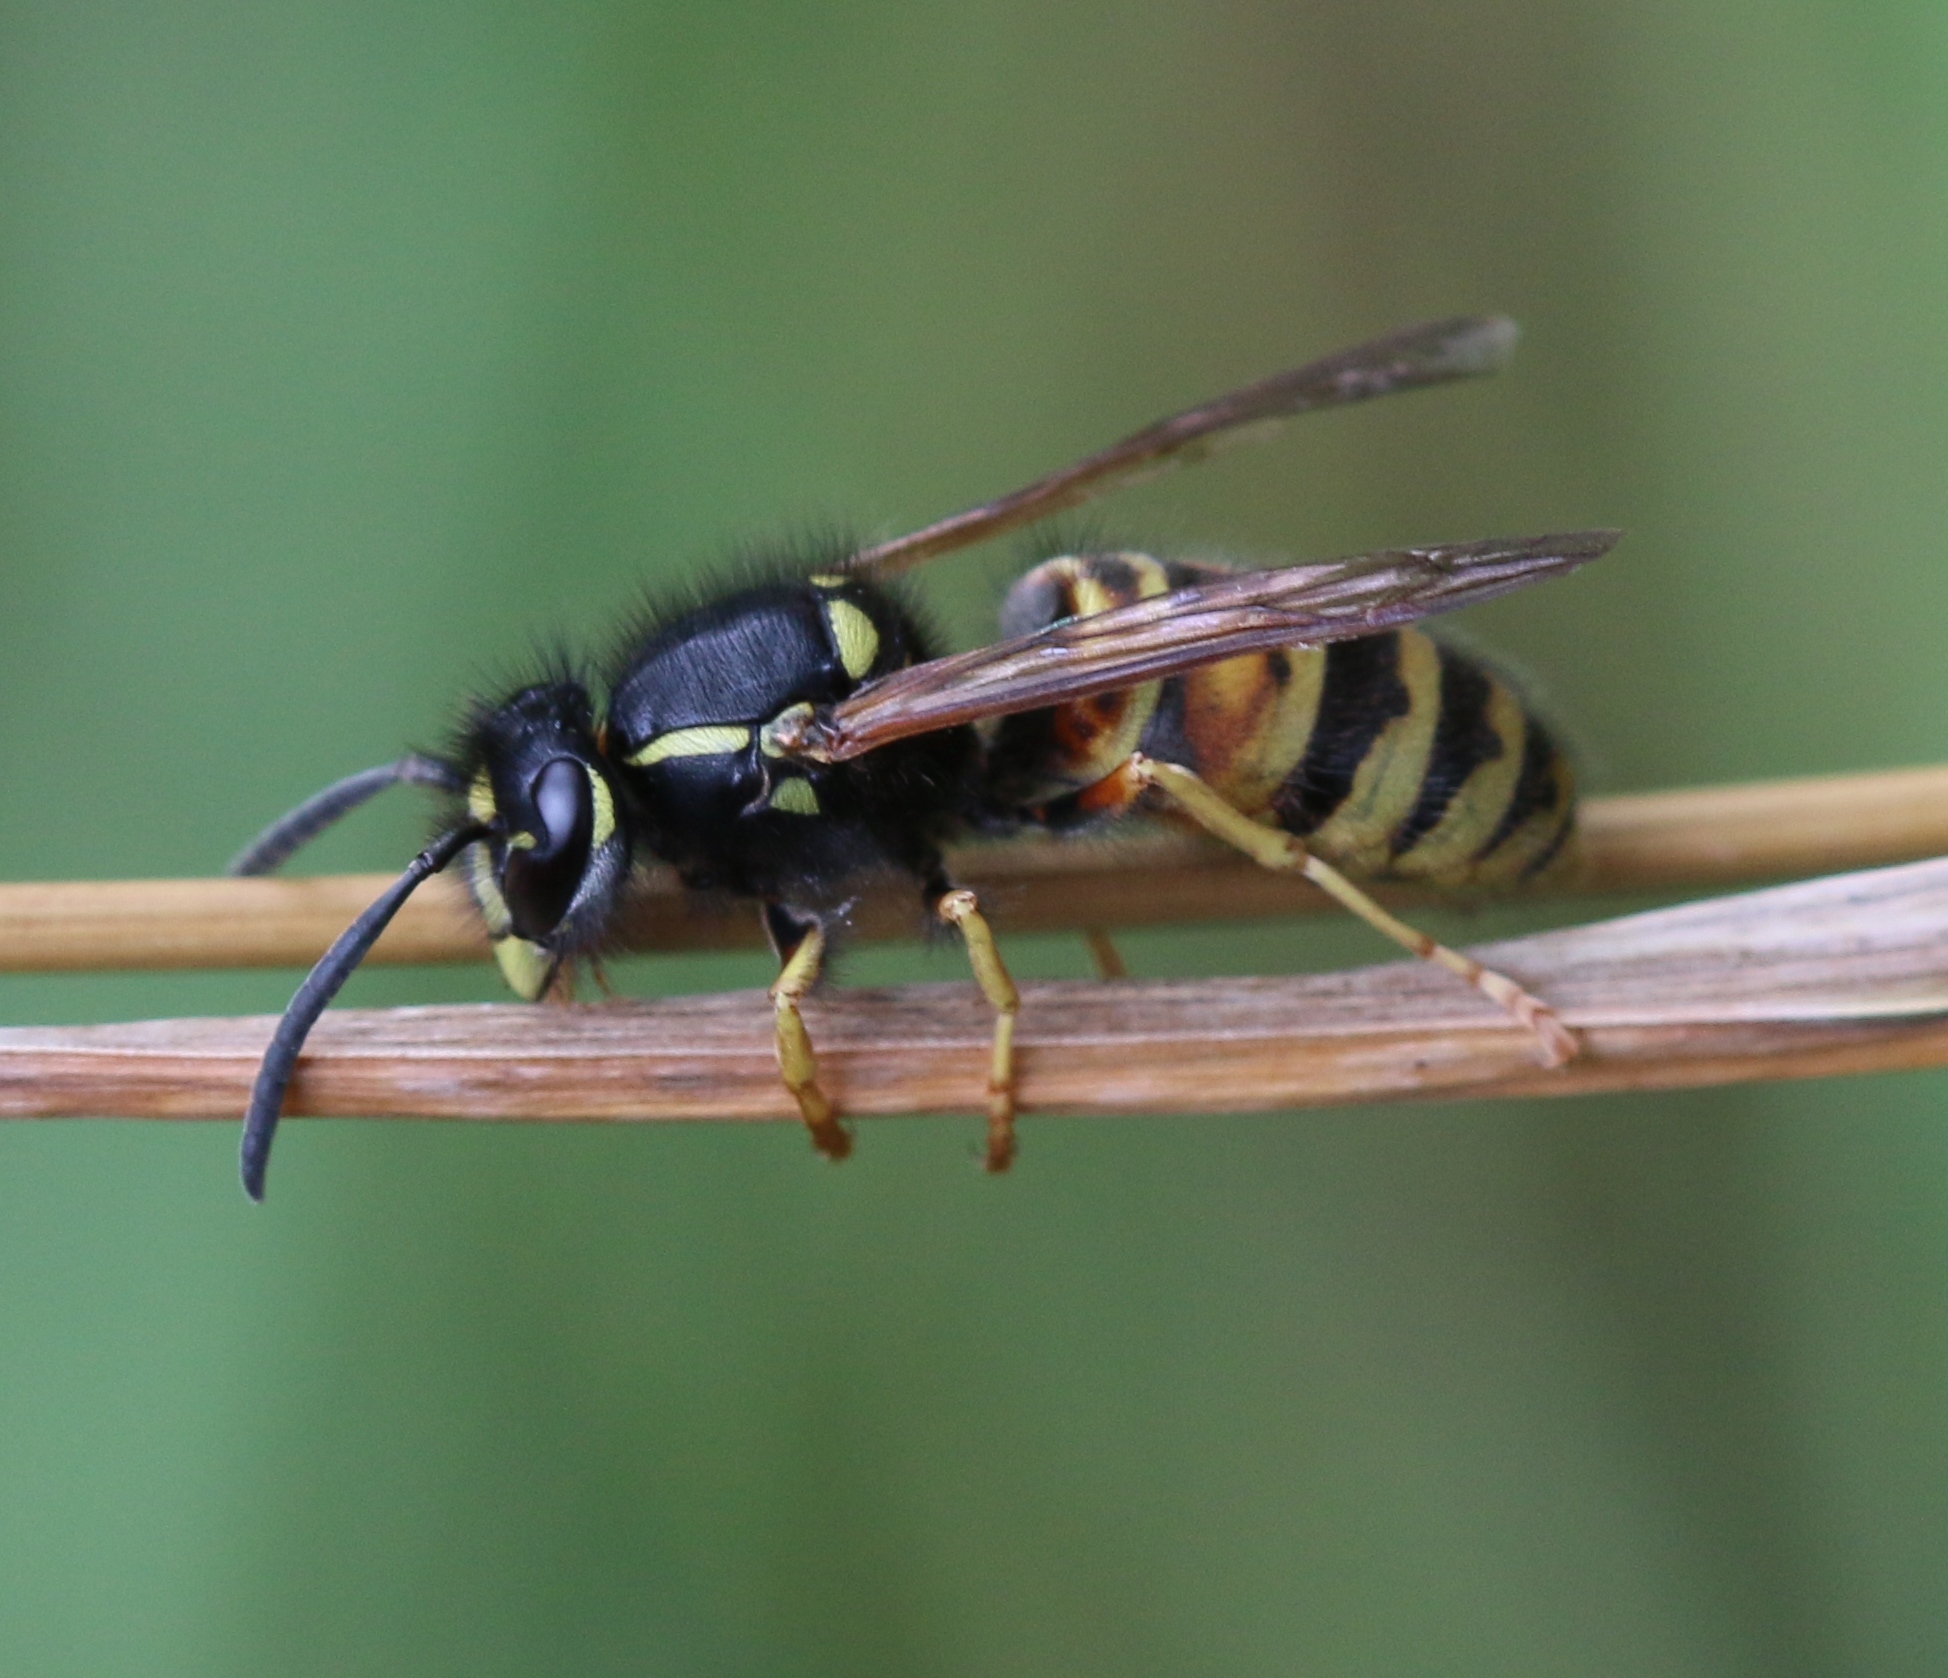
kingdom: Animalia
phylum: Arthropoda
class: Insecta
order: Hymenoptera
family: Vespidae
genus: Vespula
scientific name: Vespula rufa
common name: Red wasp
